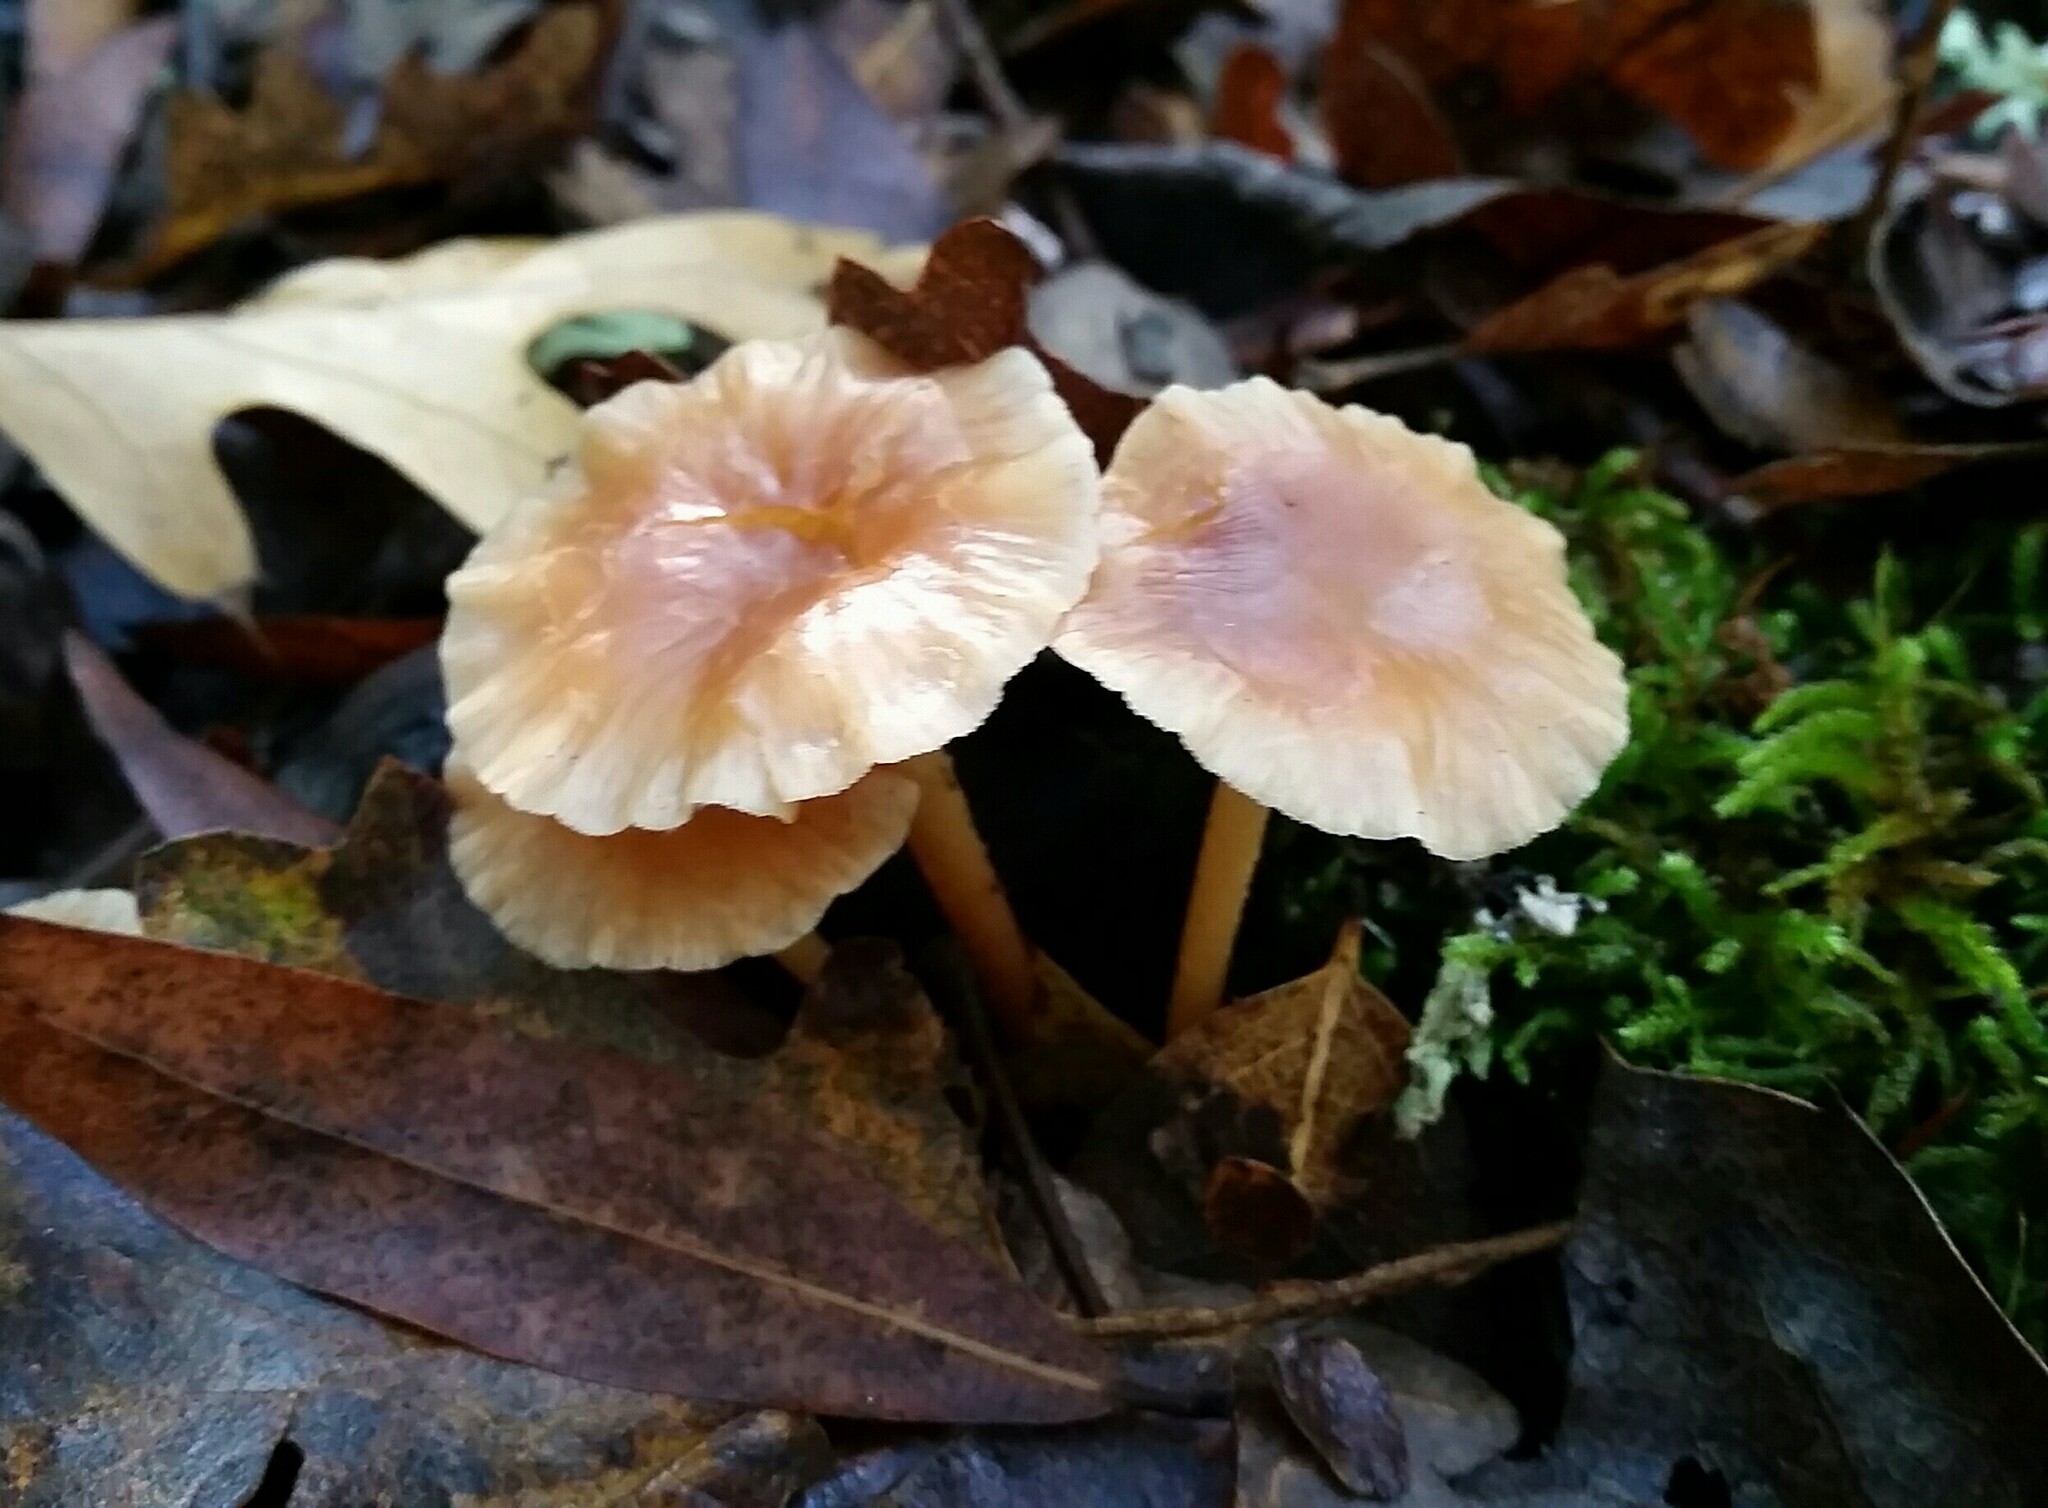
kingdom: Fungi
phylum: Basidiomycota
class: Agaricomycetes
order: Agaricales
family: Omphalotaceae
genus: Gymnopus
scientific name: Gymnopus dryophilus
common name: Penny top
